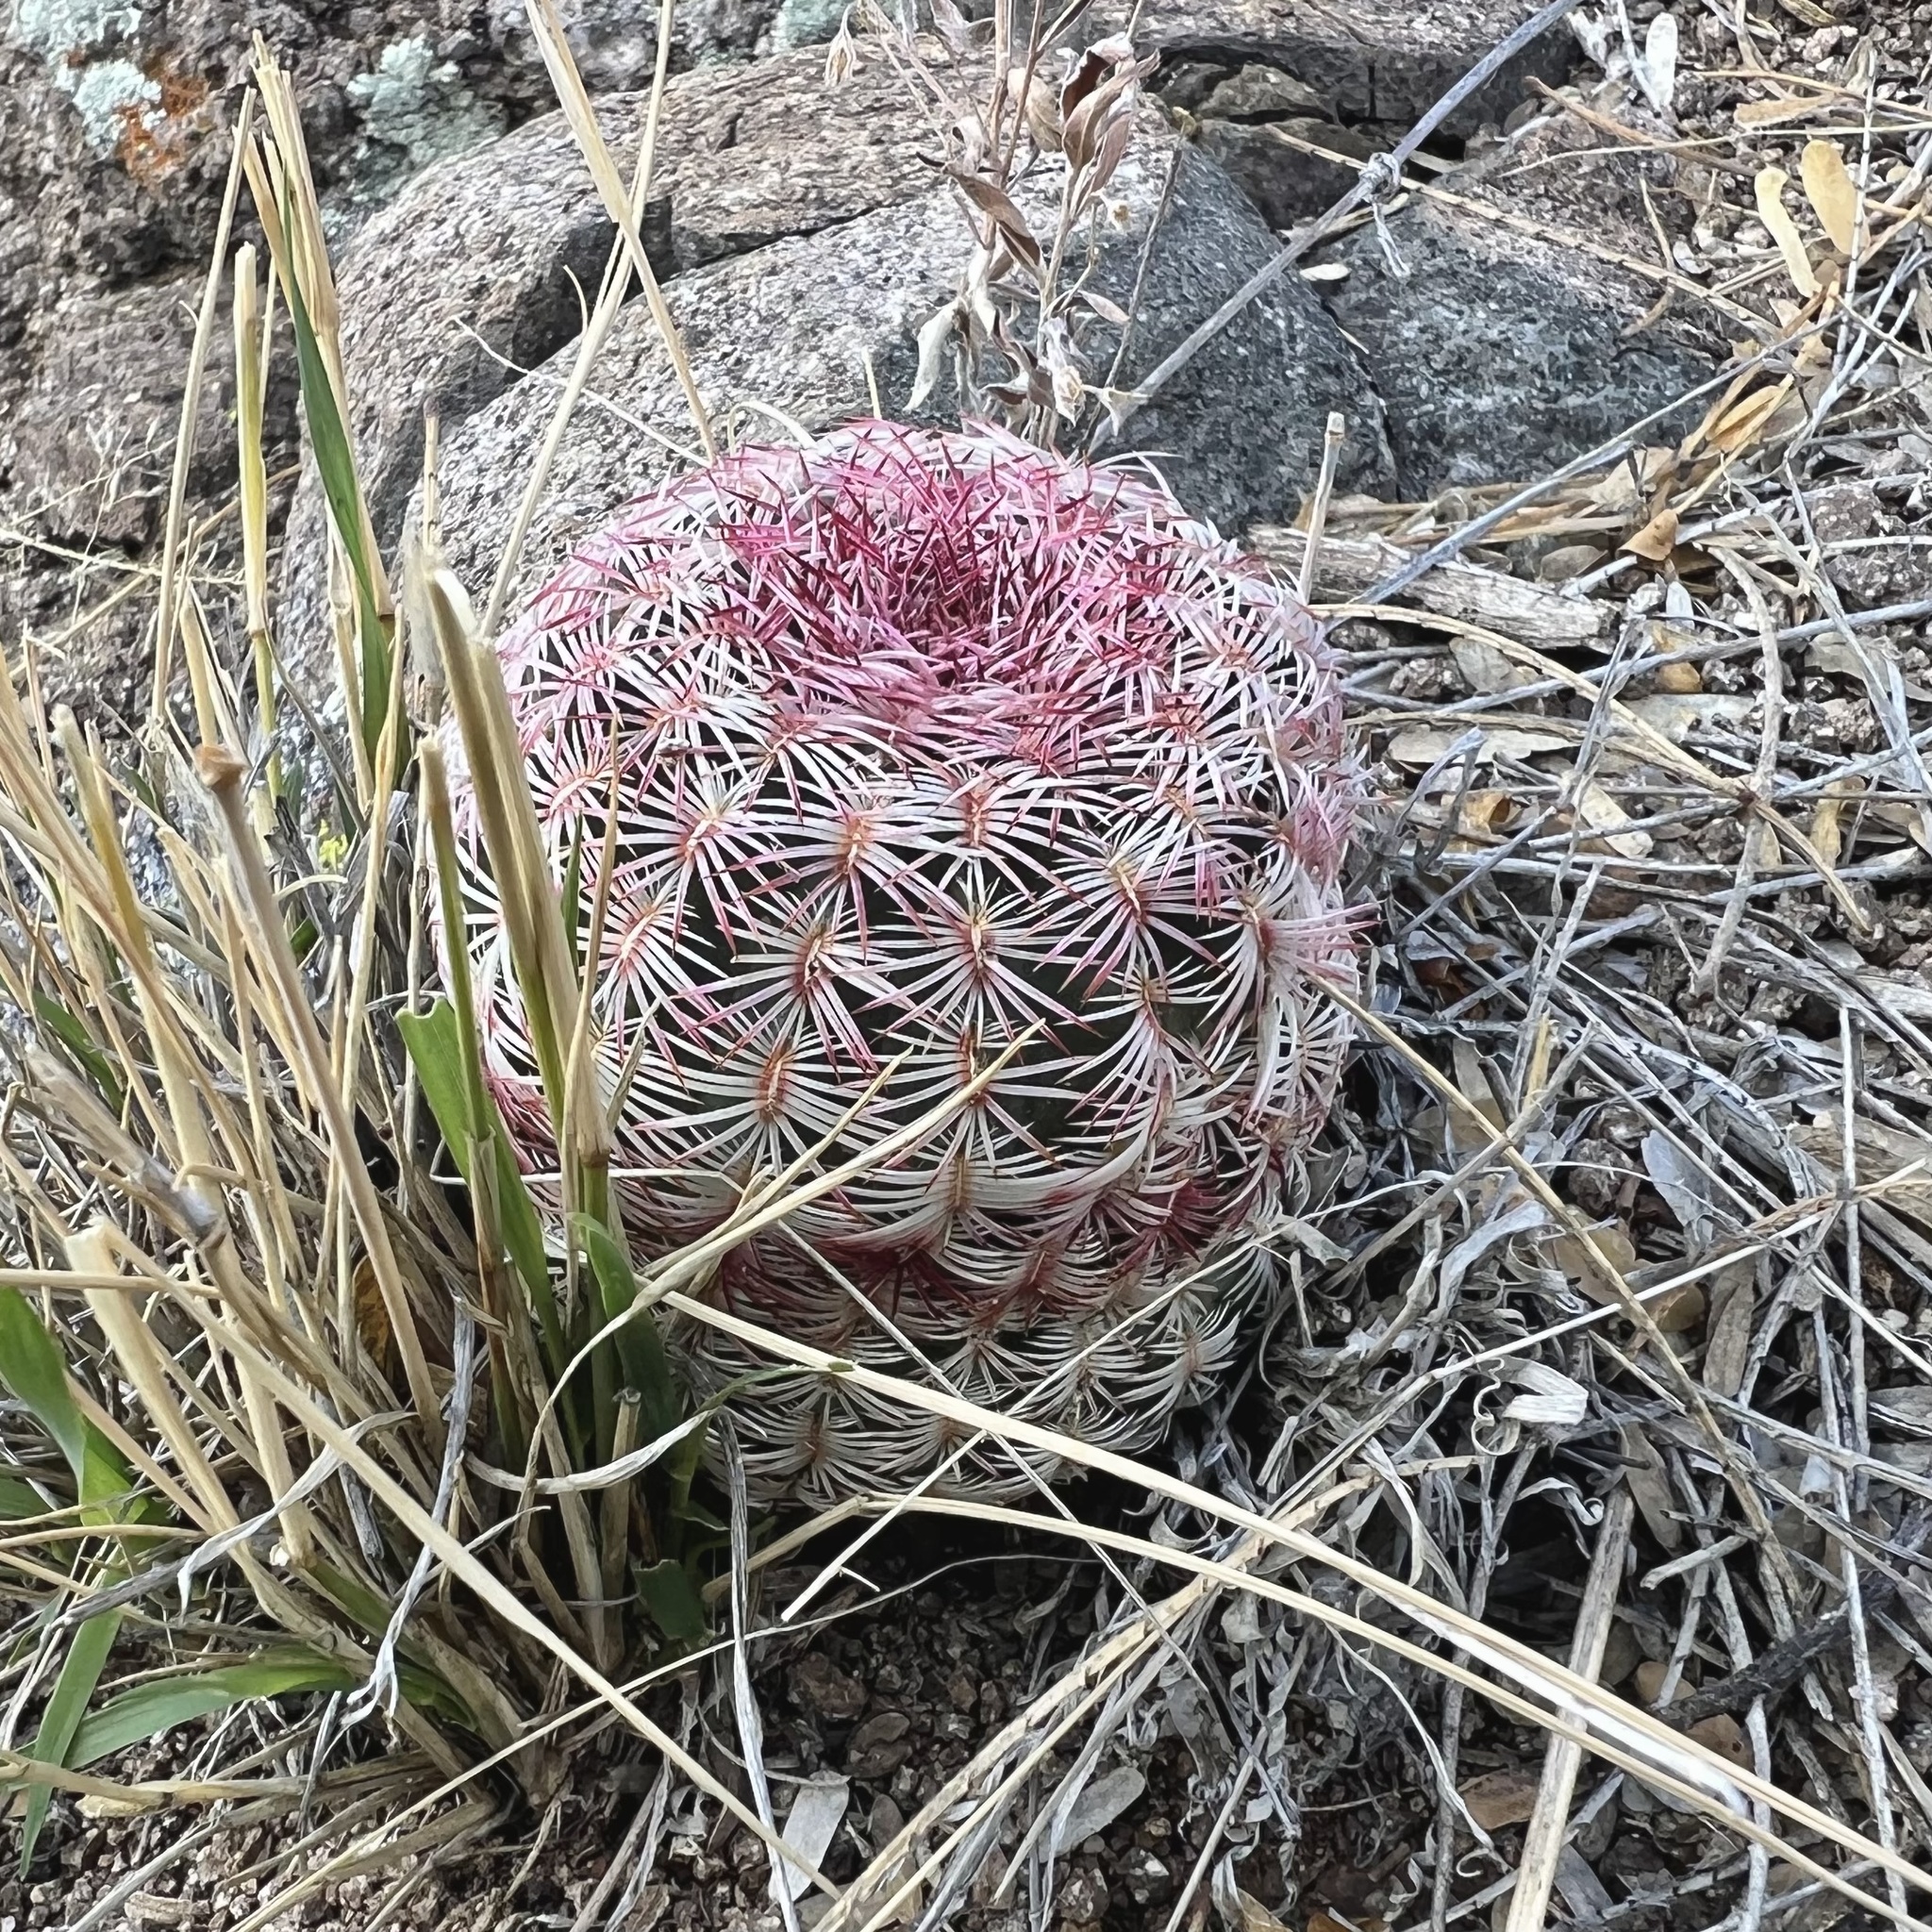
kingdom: Plantae
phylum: Tracheophyta
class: Magnoliopsida
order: Caryophyllales
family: Cactaceae
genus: Echinocereus
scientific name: Echinocereus rigidissimus
